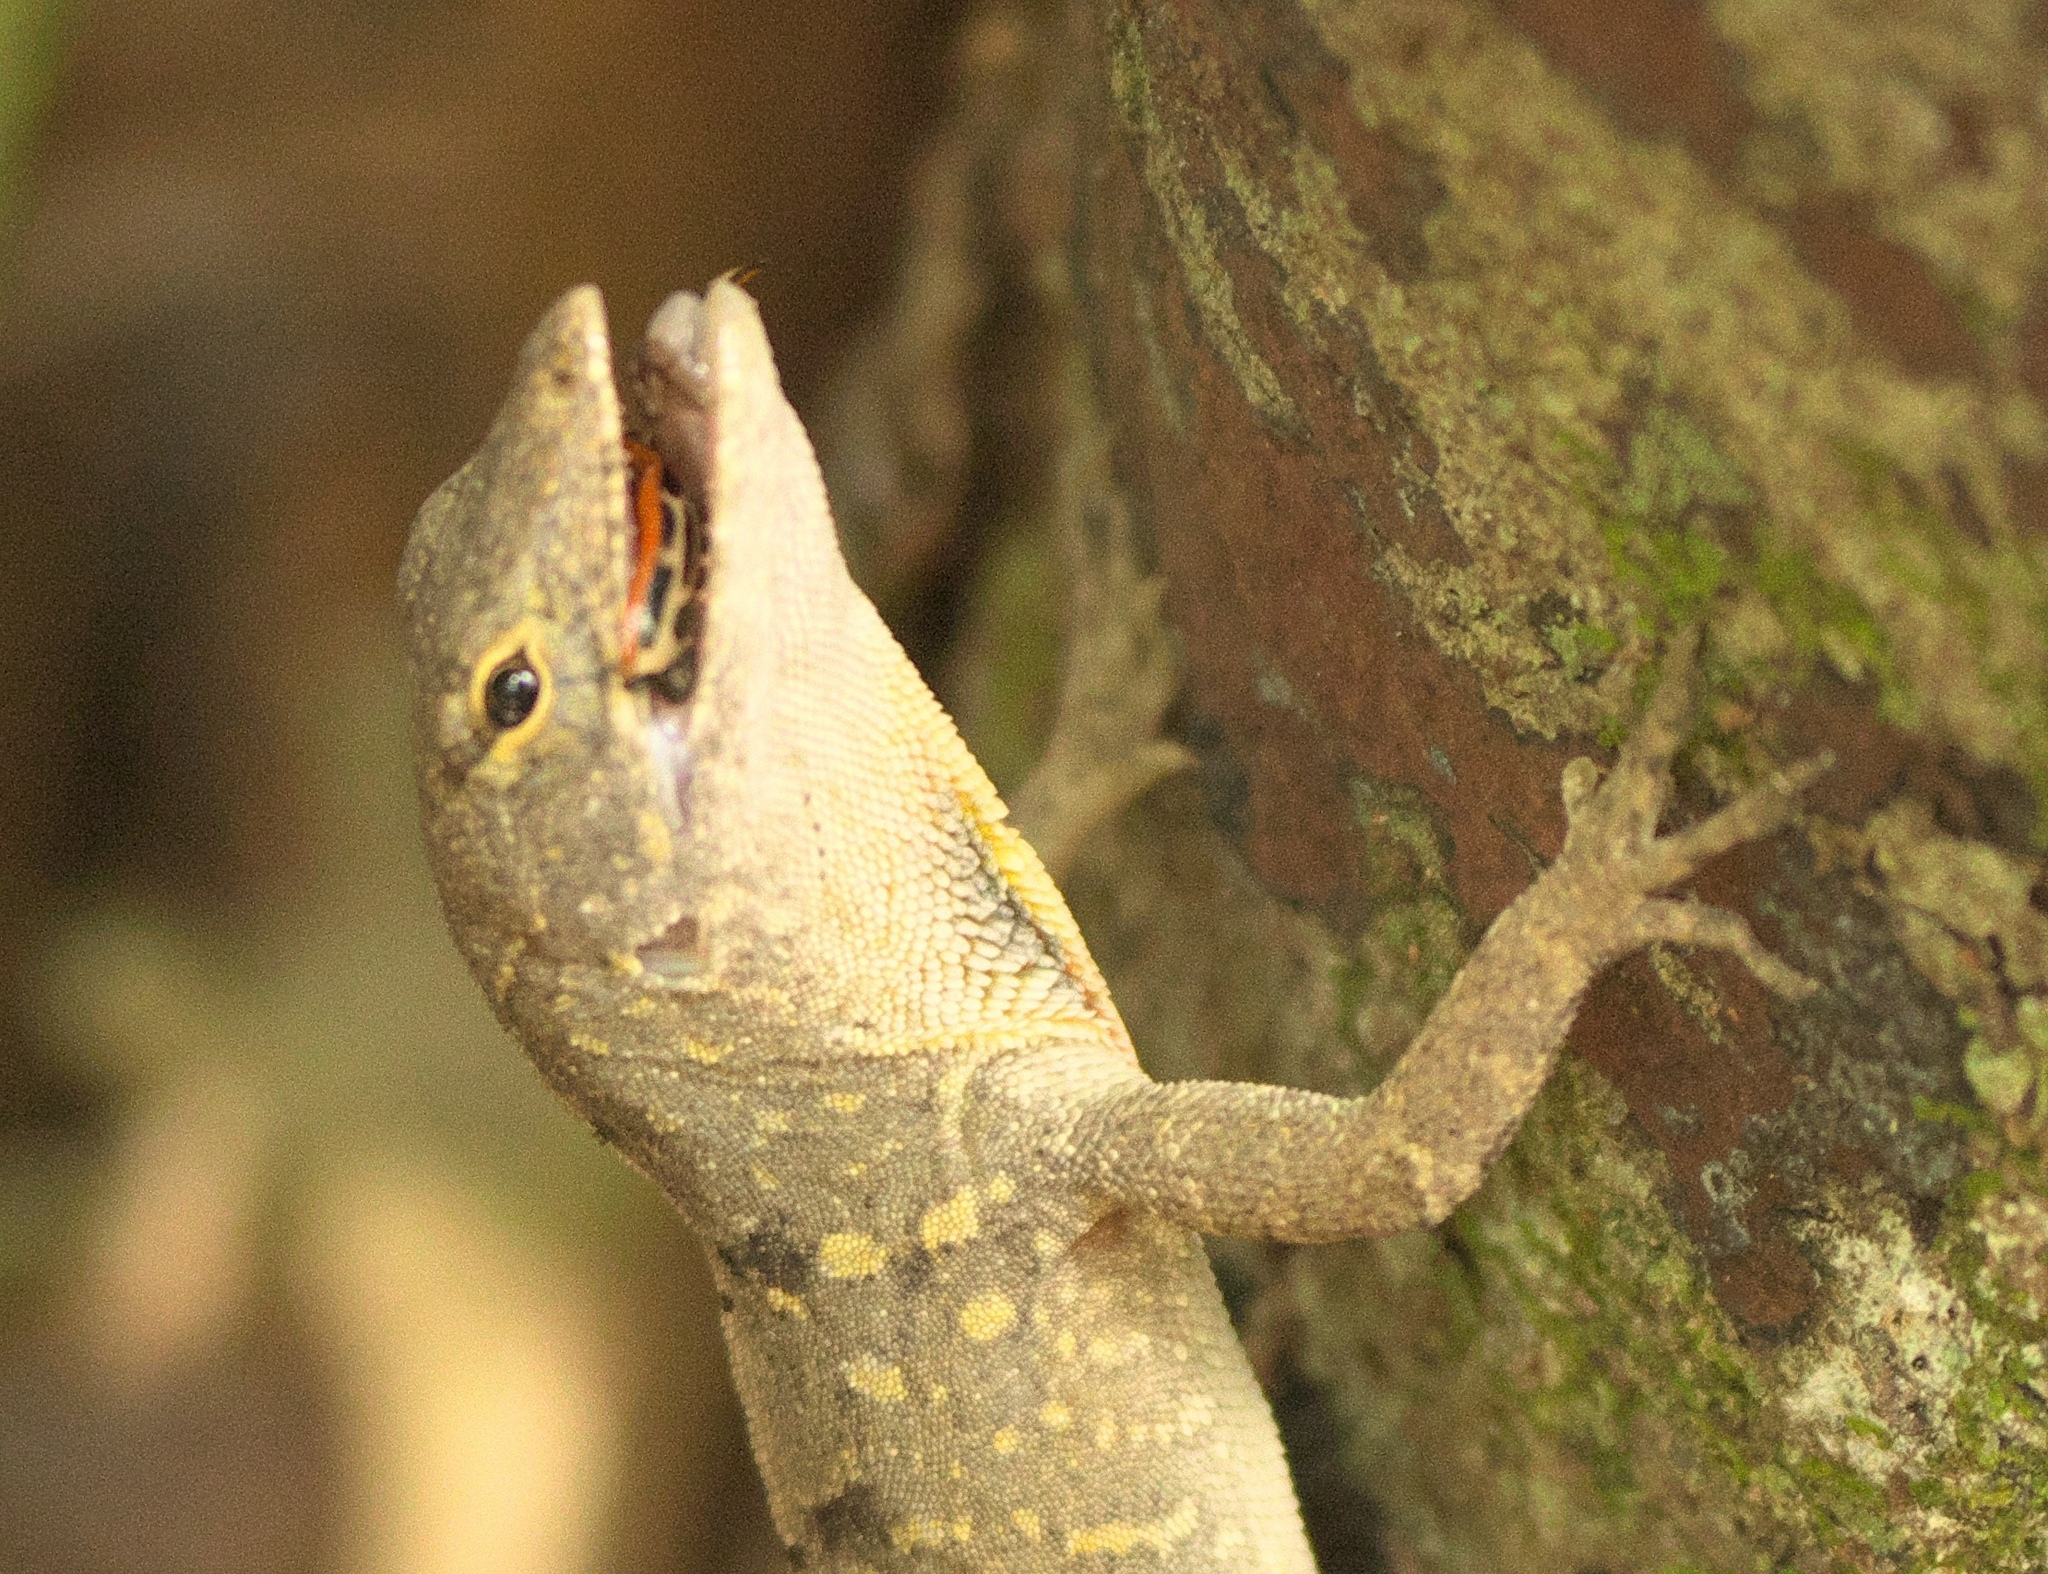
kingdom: Animalia
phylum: Arthropoda
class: Insecta
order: Coleoptera
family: Chrysomelidae
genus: Aethiopocassis
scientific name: Aethiopocassis scripta
